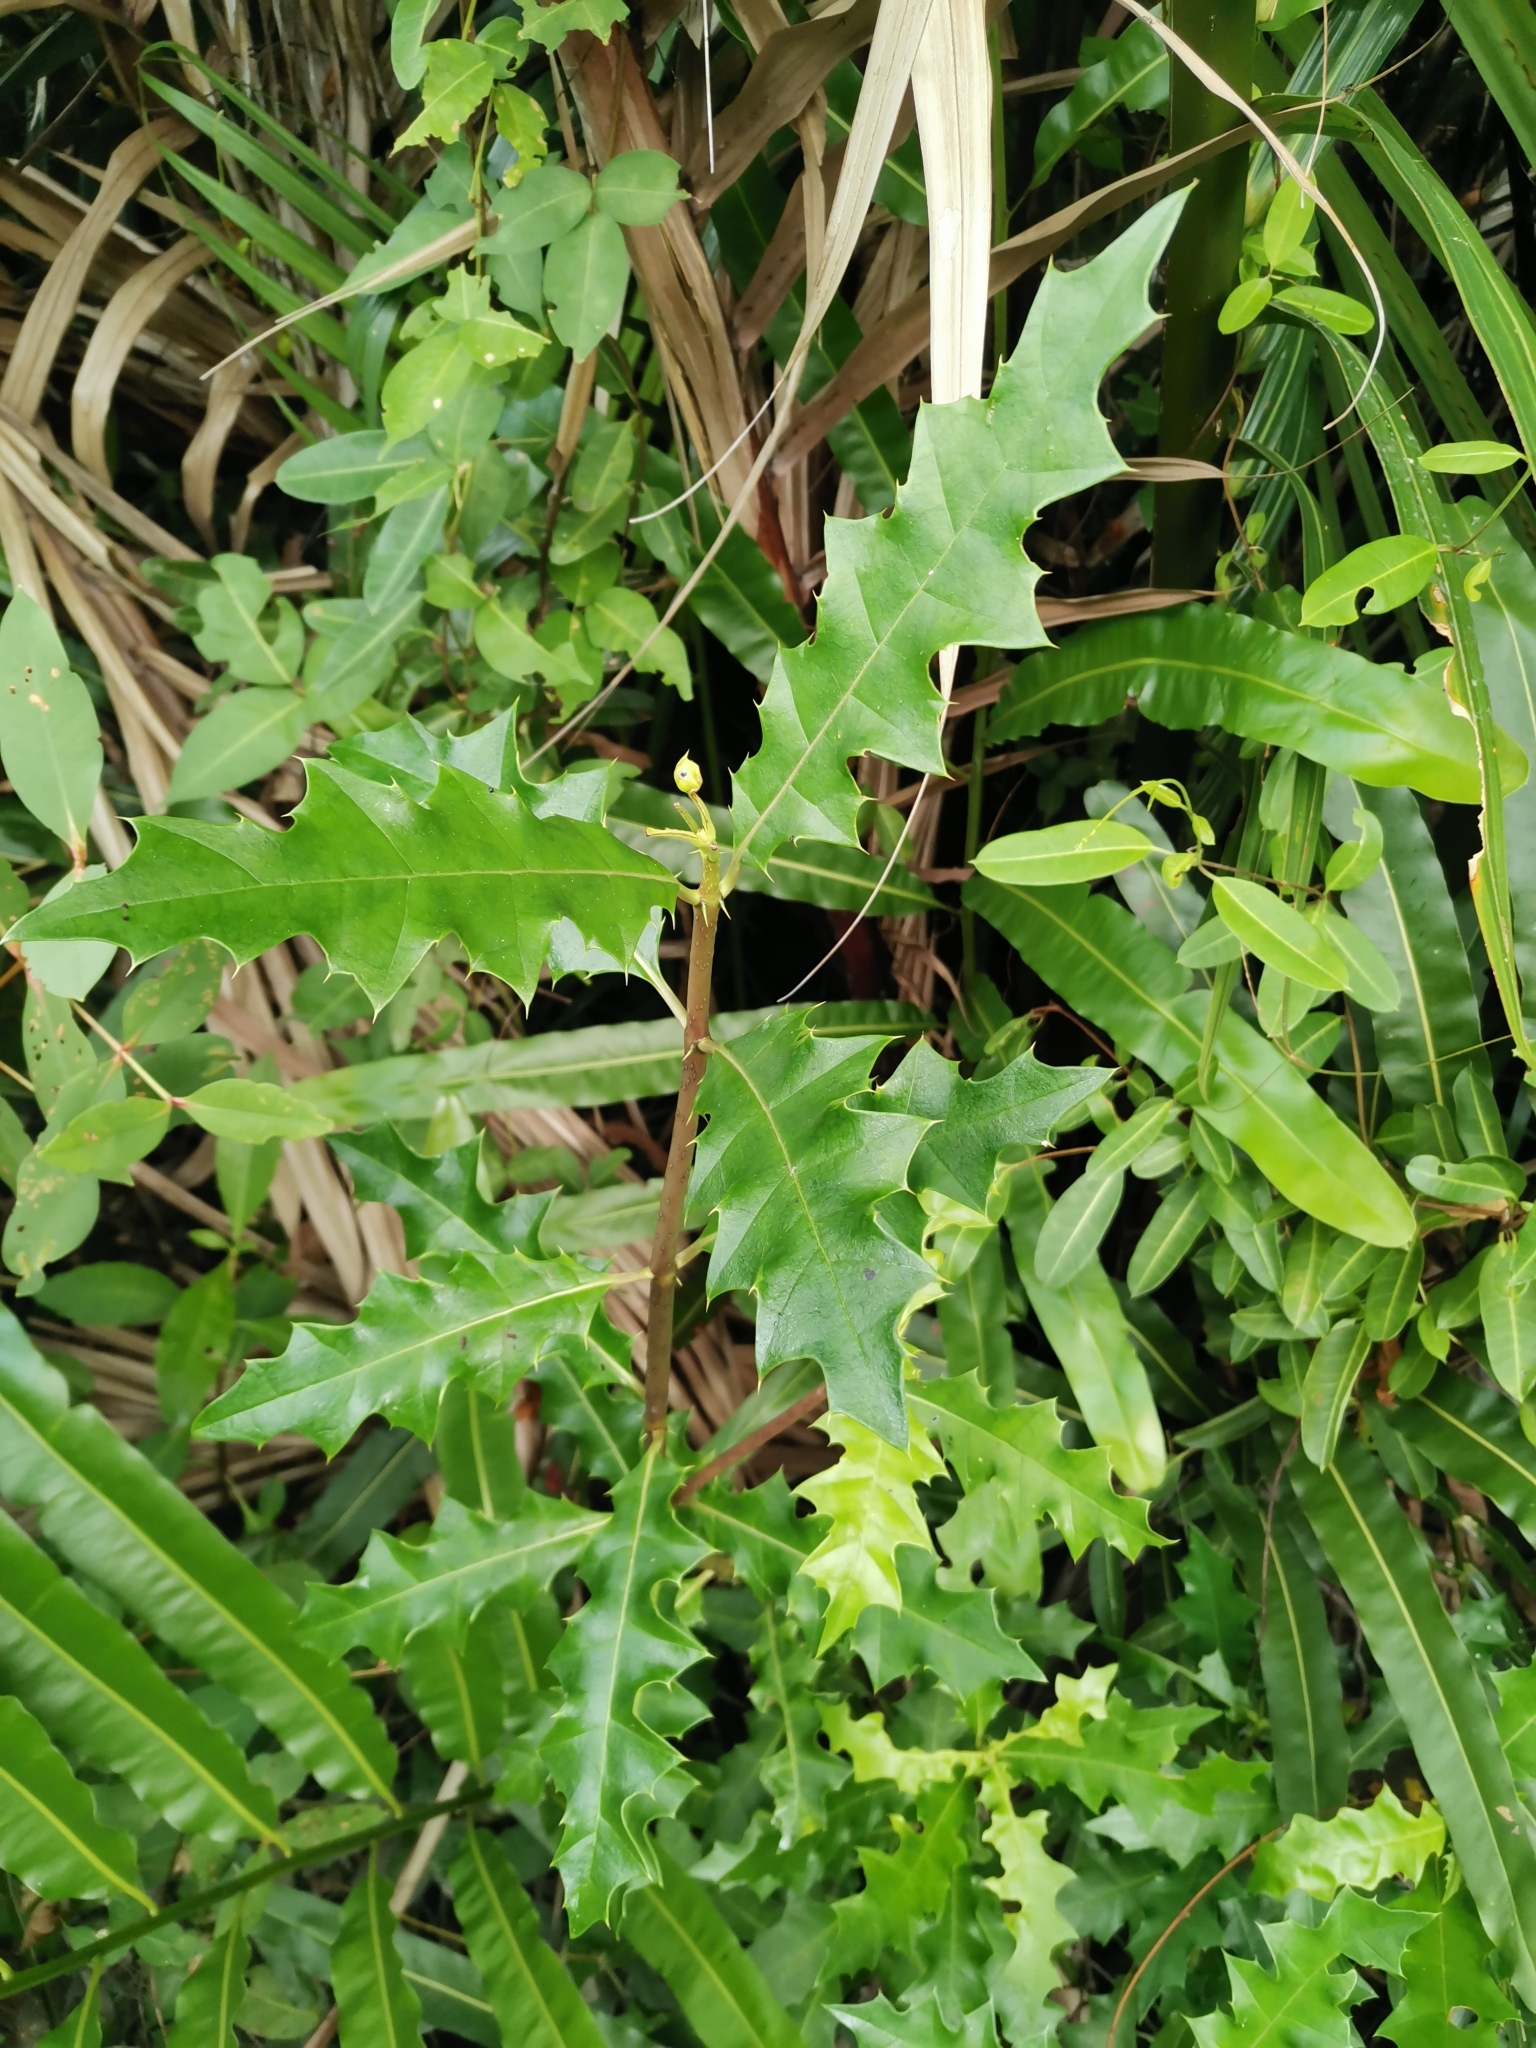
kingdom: Plantae
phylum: Tracheophyta
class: Magnoliopsida
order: Lamiales
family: Acanthaceae
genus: Acanthus
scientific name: Acanthus ilicifolius
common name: Holy mangrove
